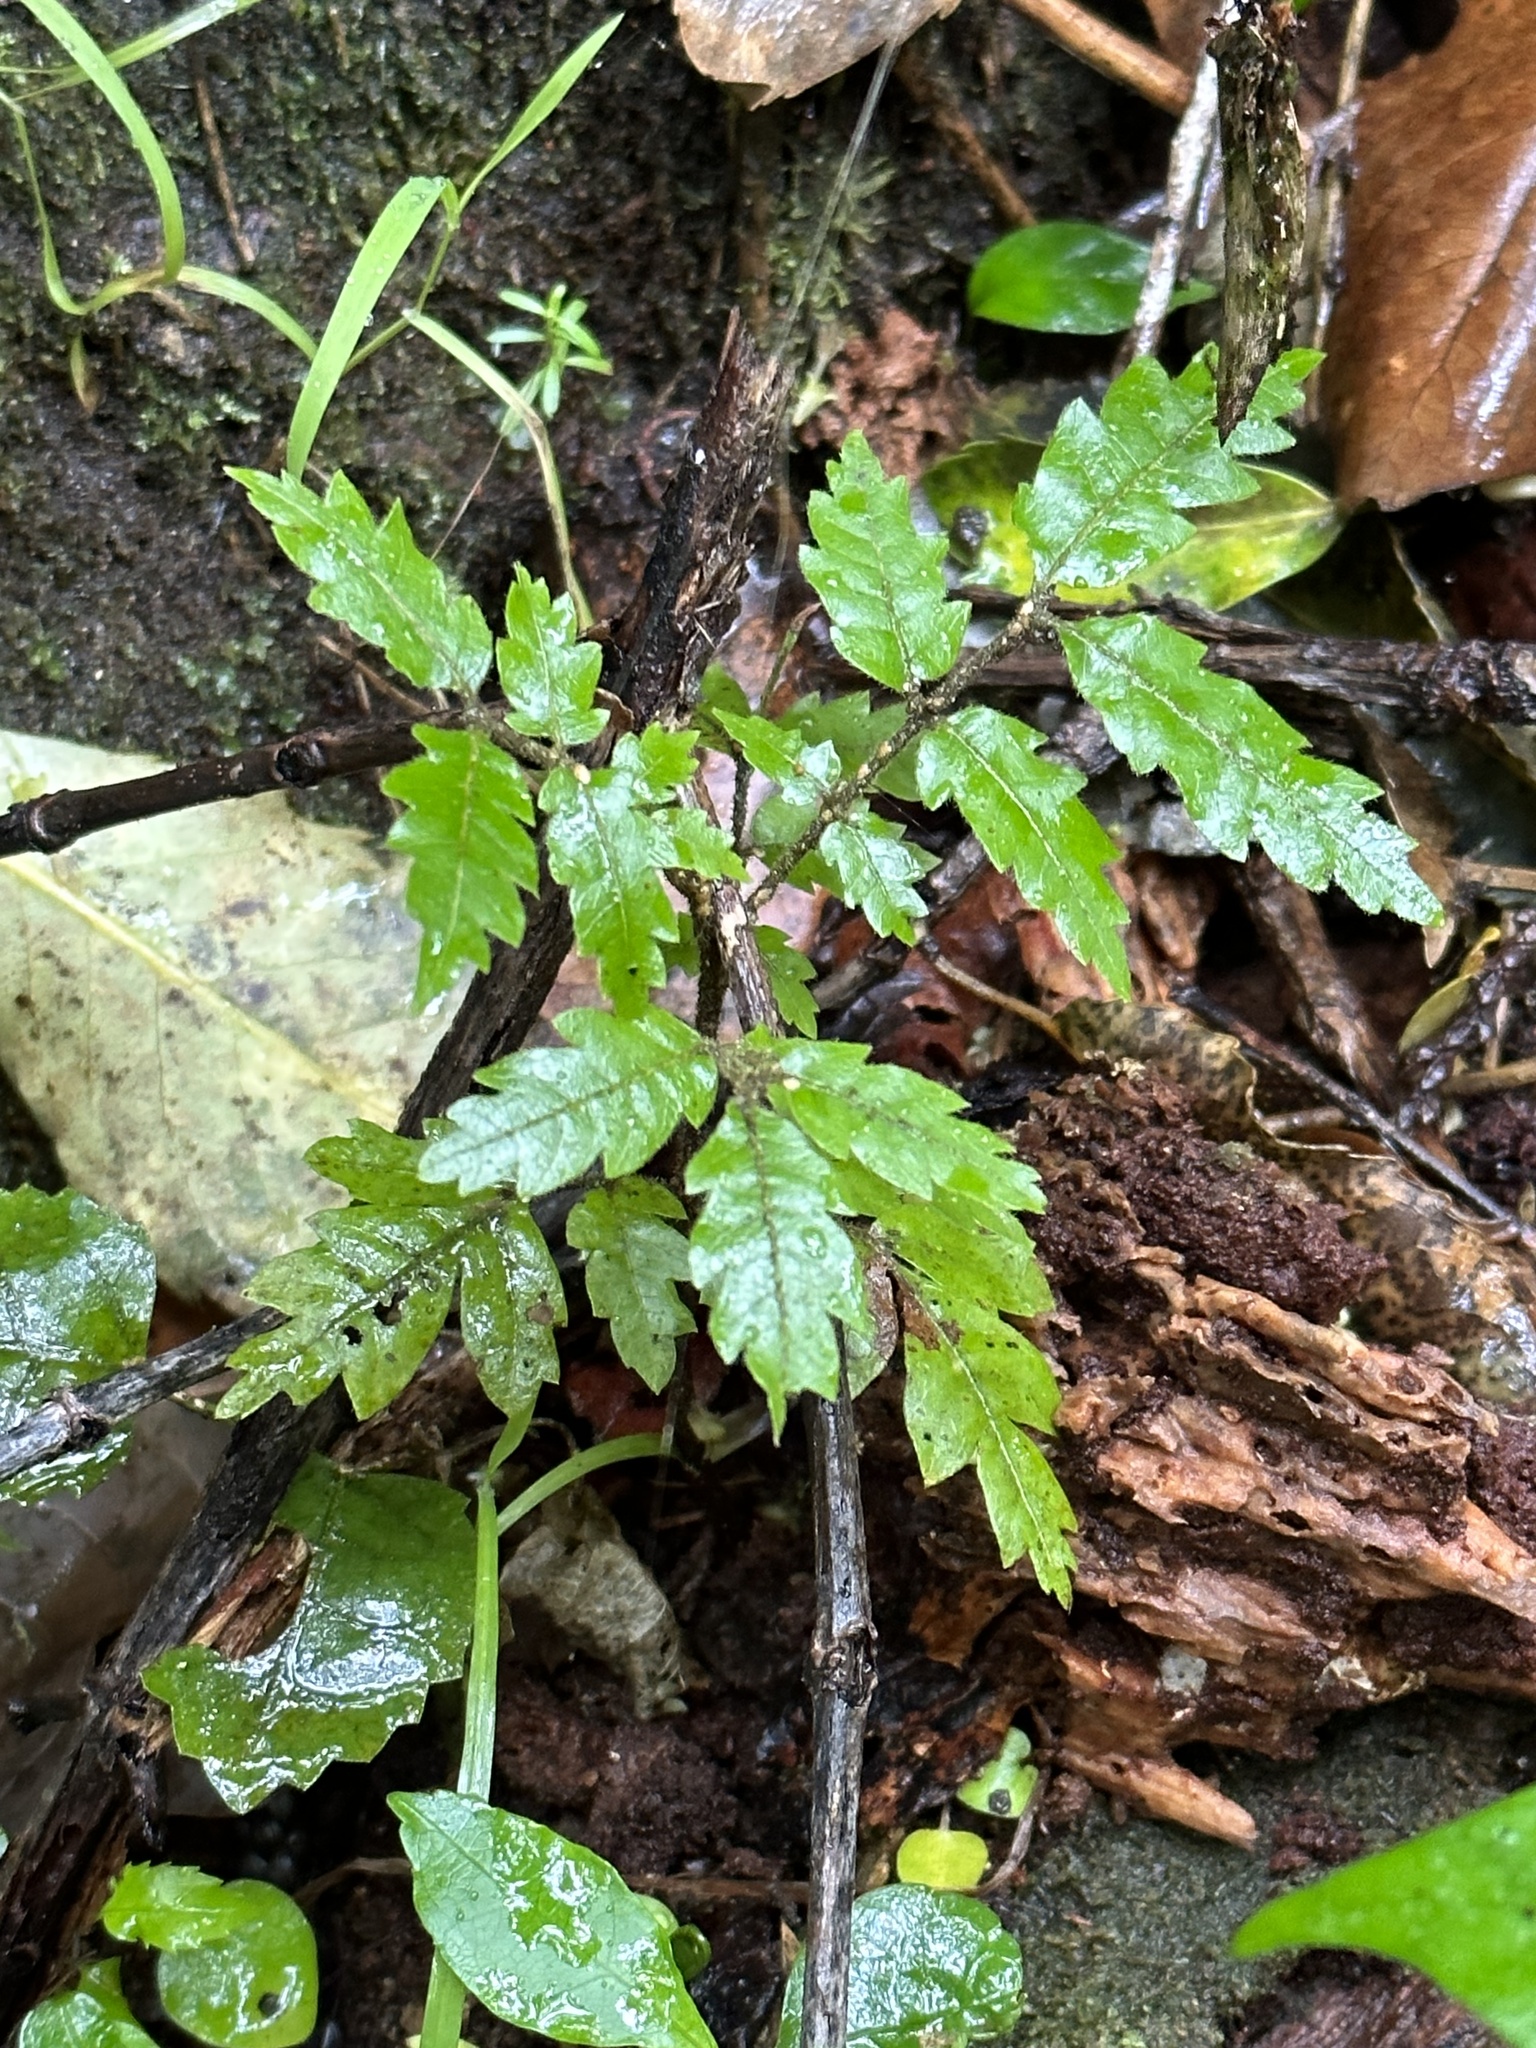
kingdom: Plantae
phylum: Tracheophyta
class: Magnoliopsida
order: Sapindales
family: Sapindaceae
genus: Alectryon
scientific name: Alectryon excelsus
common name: Three kings titoki
